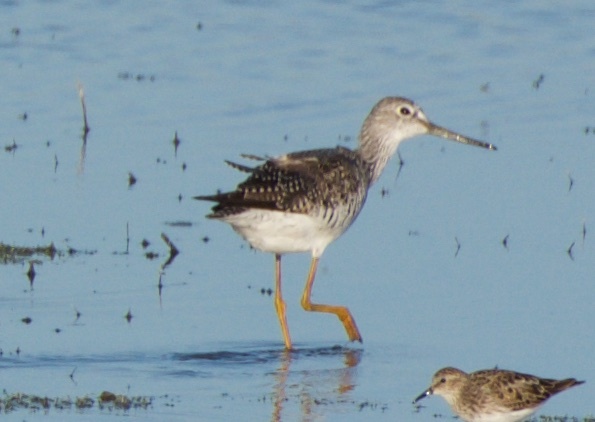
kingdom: Animalia
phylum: Chordata
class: Aves
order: Charadriiformes
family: Scolopacidae
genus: Tringa
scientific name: Tringa melanoleuca
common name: Greater yellowlegs
